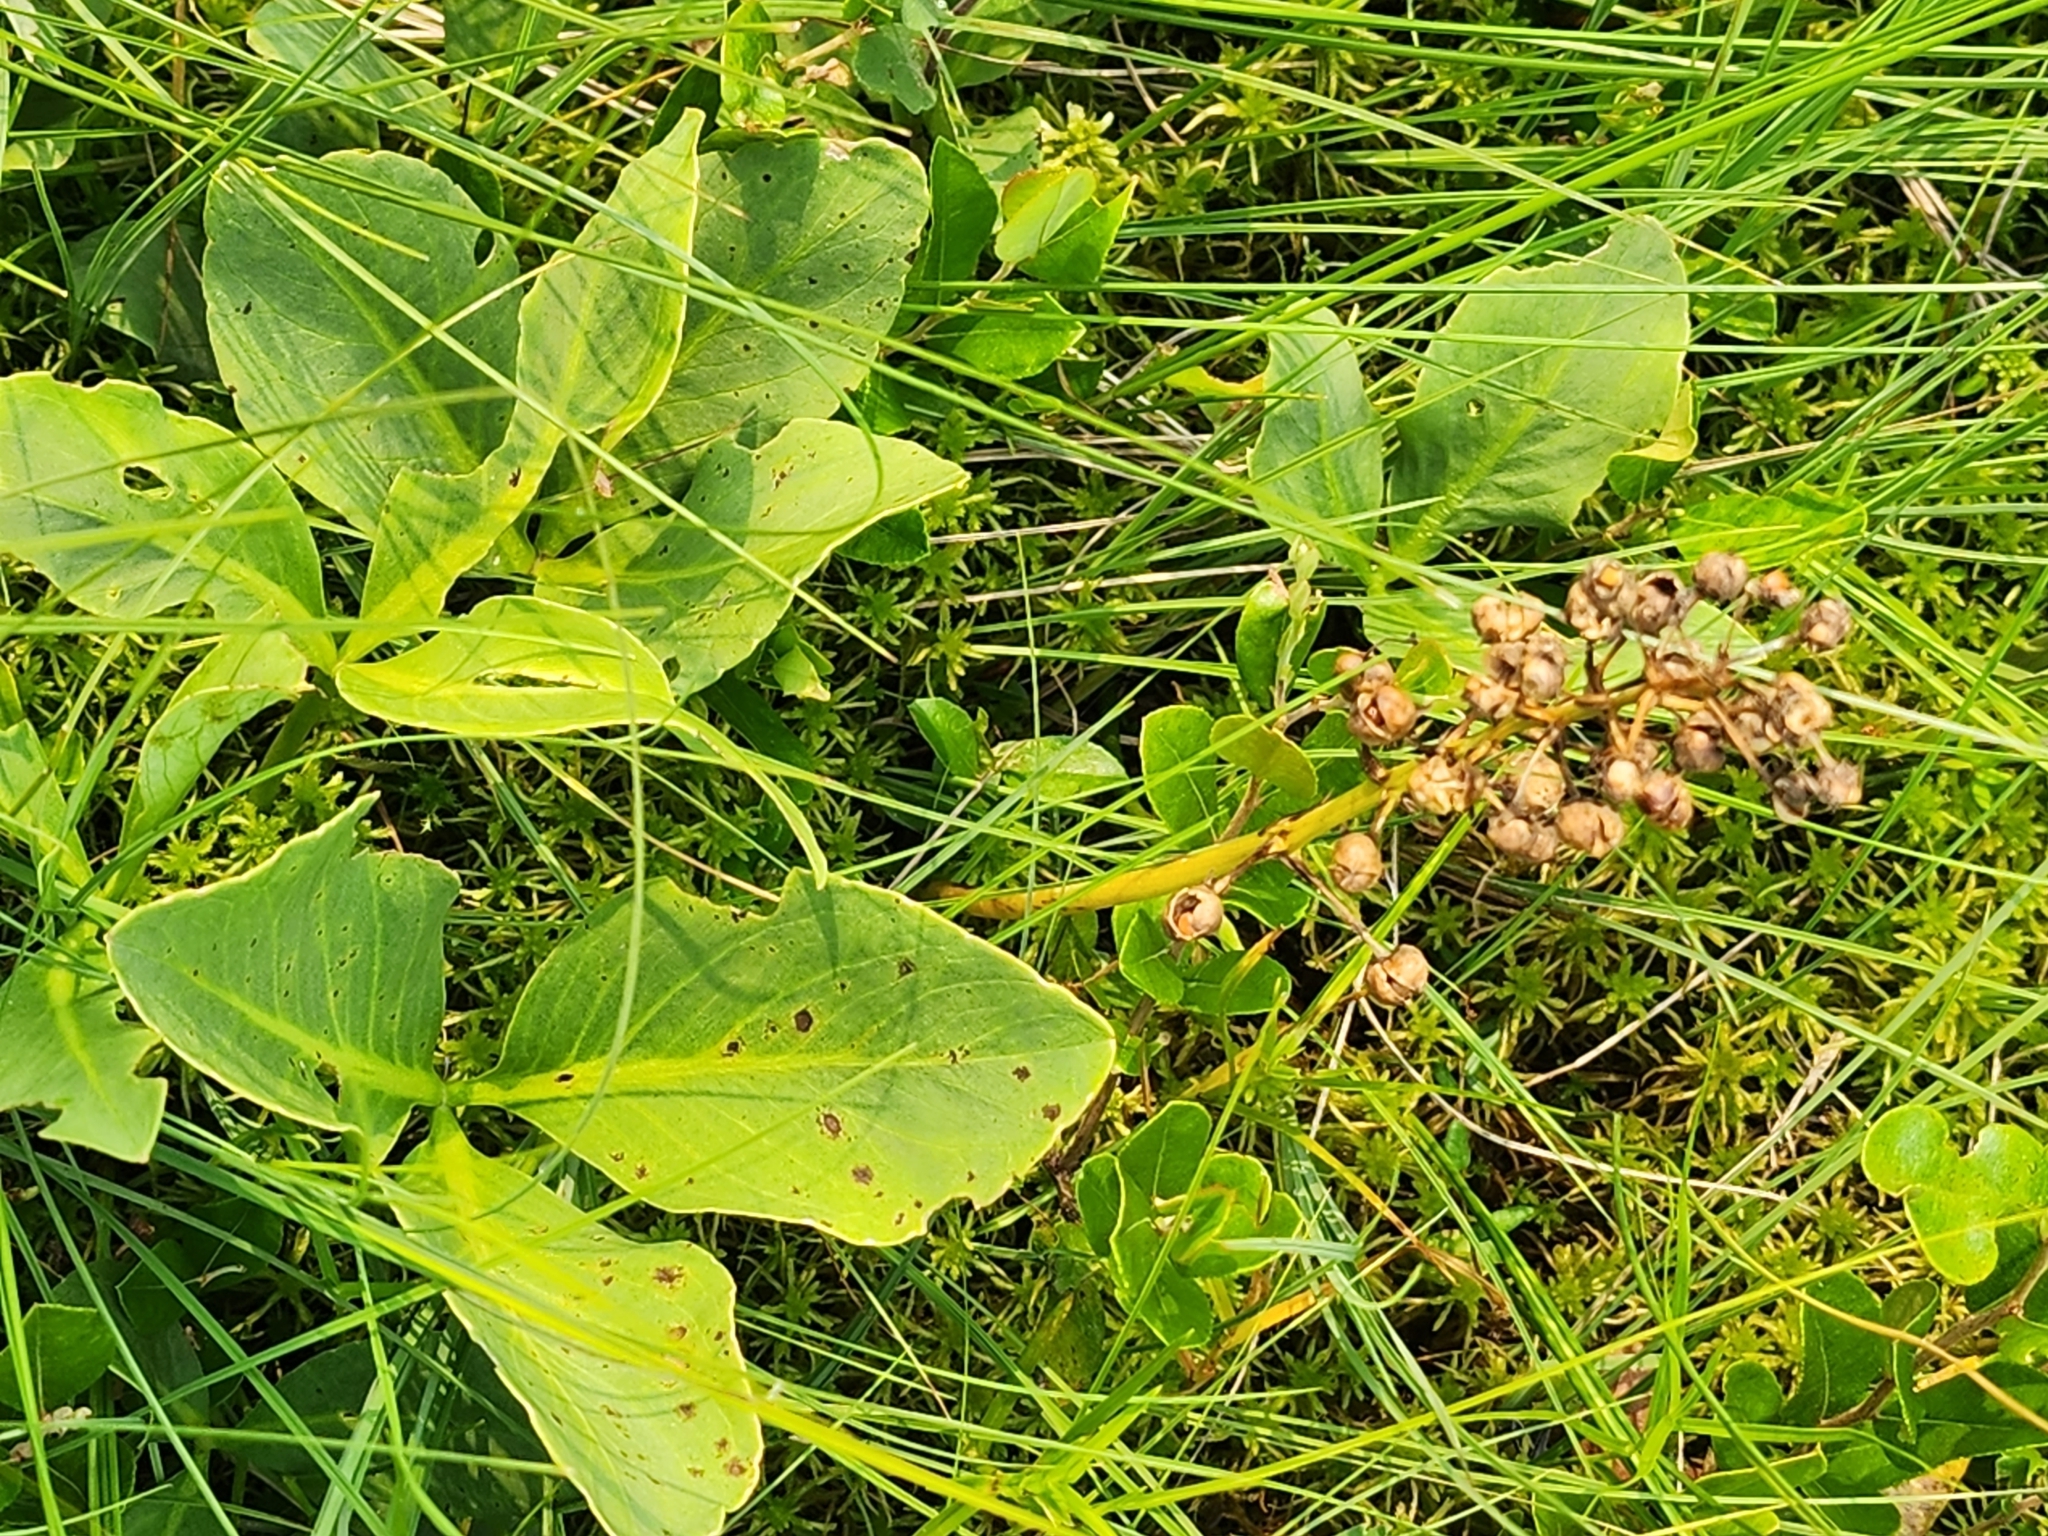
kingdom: Plantae
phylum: Tracheophyta
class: Magnoliopsida
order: Asterales
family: Menyanthaceae
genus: Menyanthes
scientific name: Menyanthes trifoliata
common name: Bogbean
